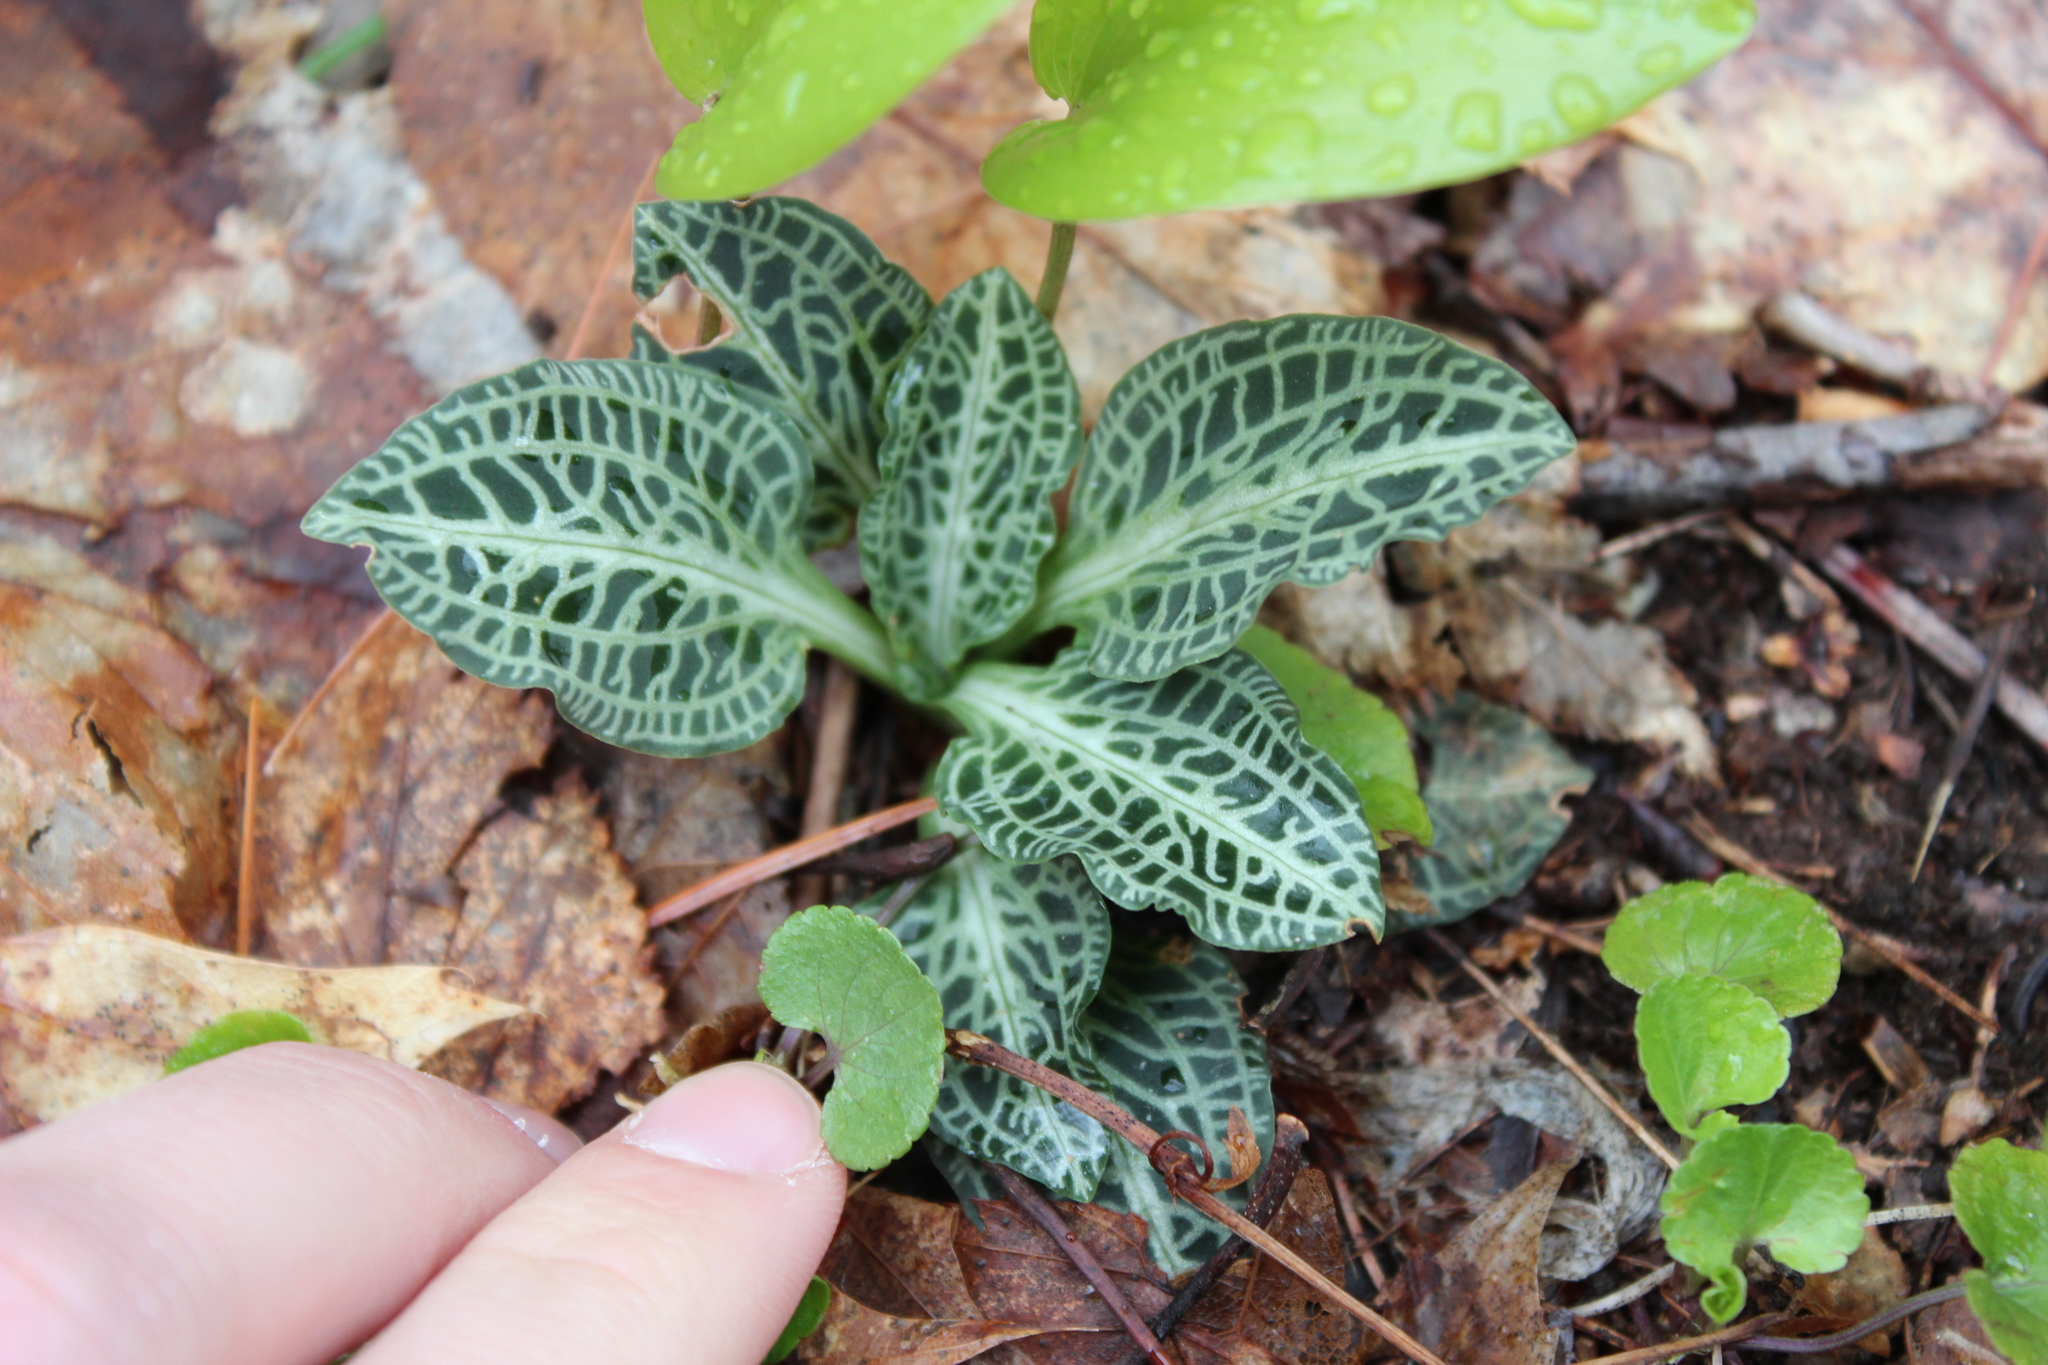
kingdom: Plantae
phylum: Tracheophyta
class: Liliopsida
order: Asparagales
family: Orchidaceae
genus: Goodyera
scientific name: Goodyera pubescens
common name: Downy rattlesnake-plantain
